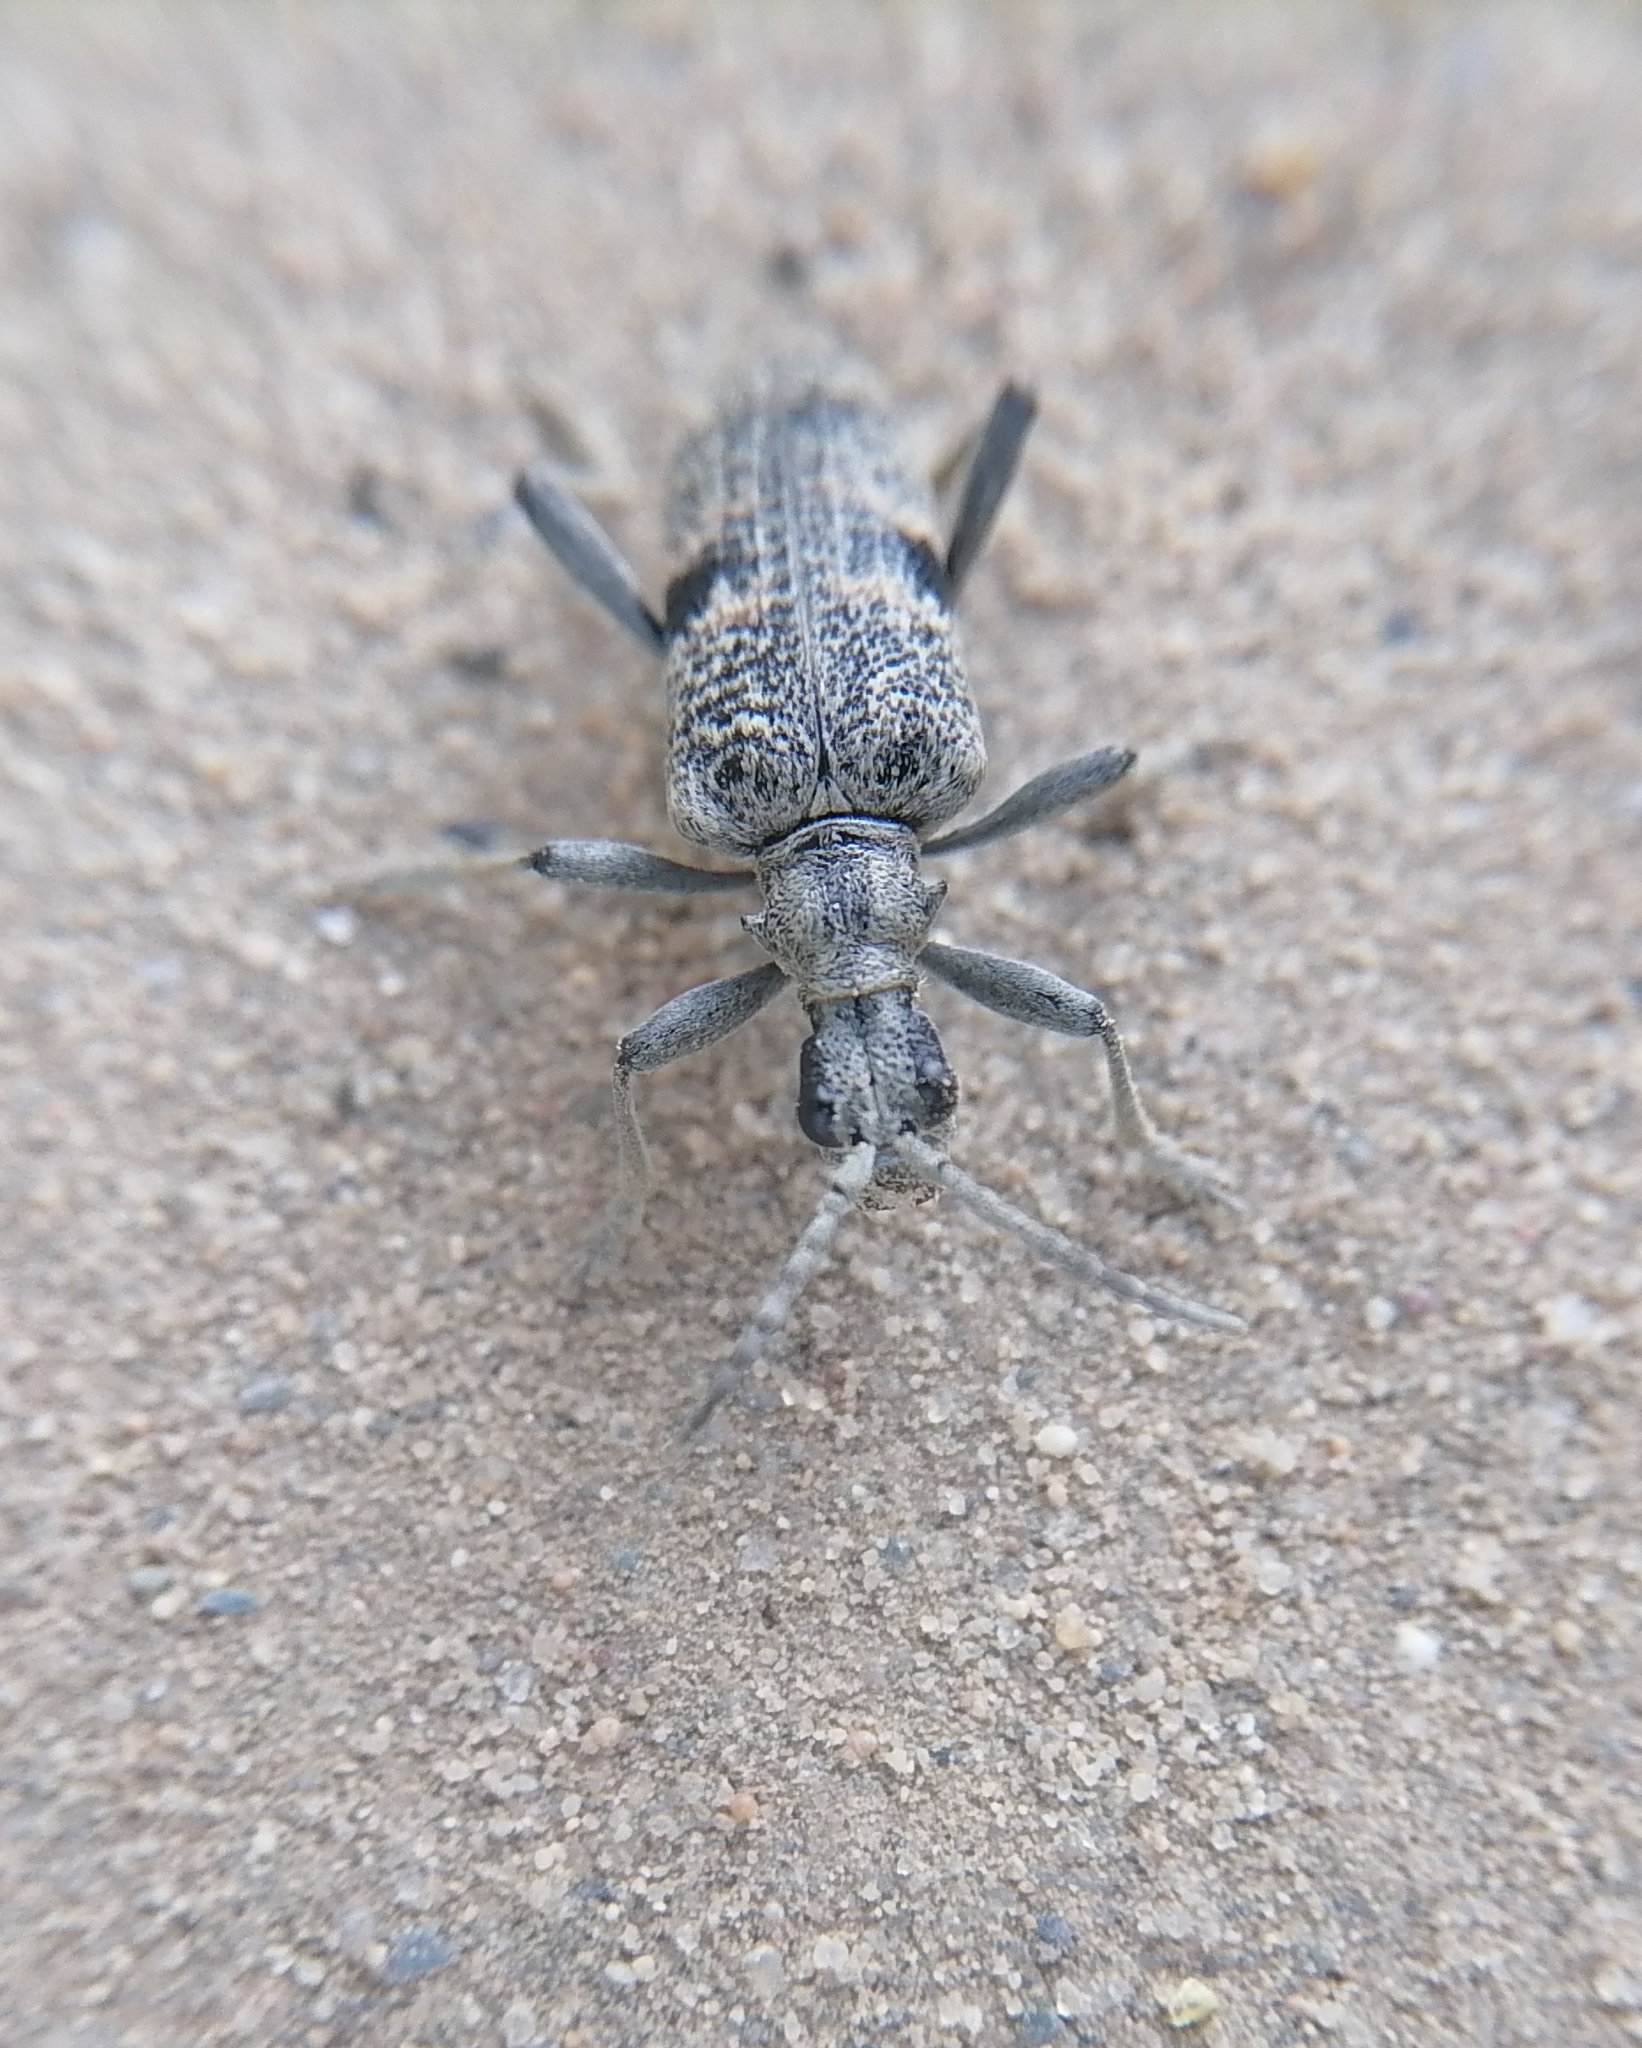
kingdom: Animalia
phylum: Arthropoda
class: Insecta
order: Coleoptera
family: Cerambycidae
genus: Rhagium
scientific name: Rhagium mordax
